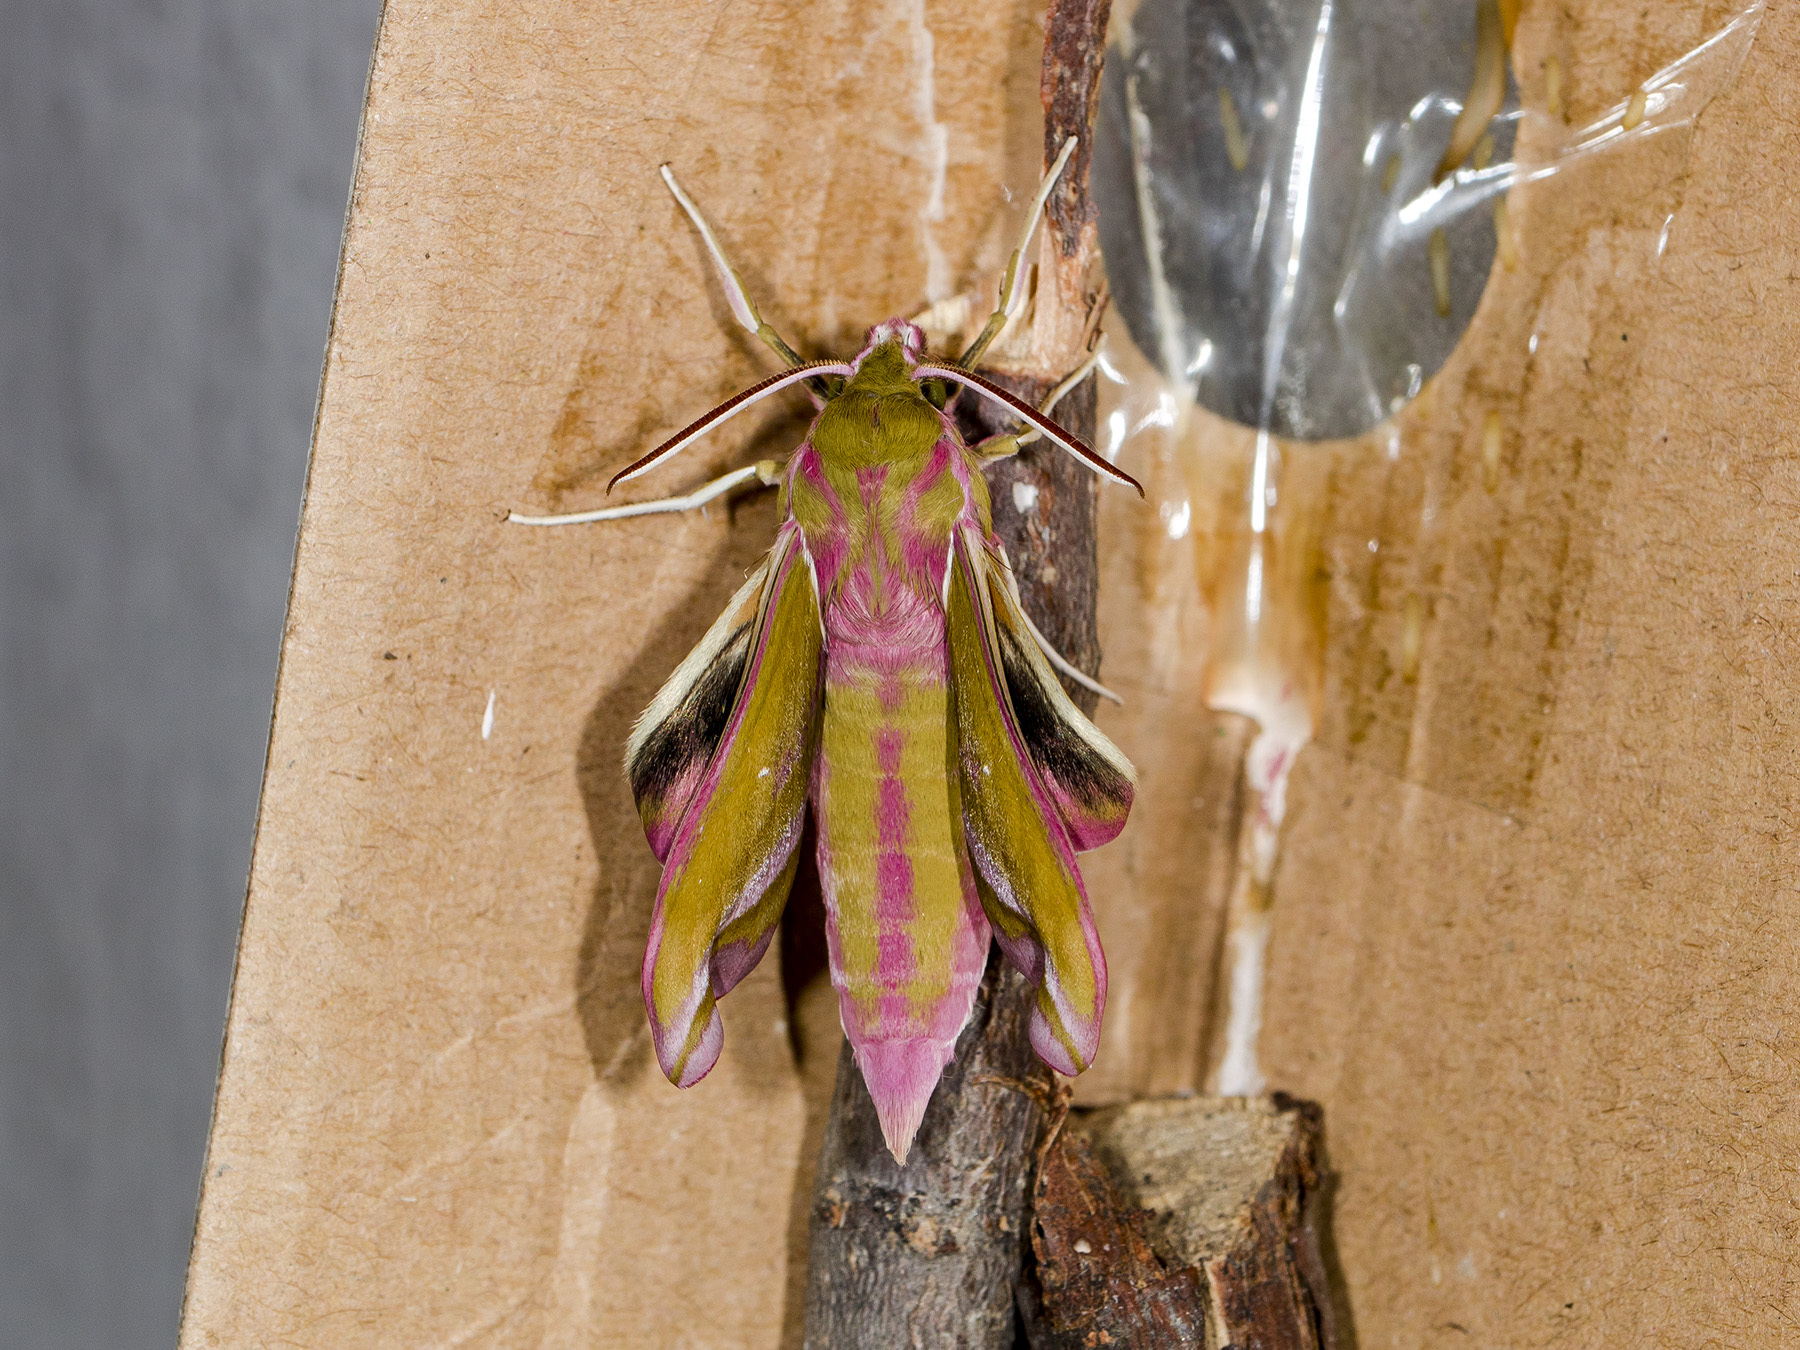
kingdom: Animalia
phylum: Arthropoda
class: Insecta
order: Lepidoptera
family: Sphingidae
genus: Deilephila
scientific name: Deilephila elpenor
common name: Elephant hawk-moth
